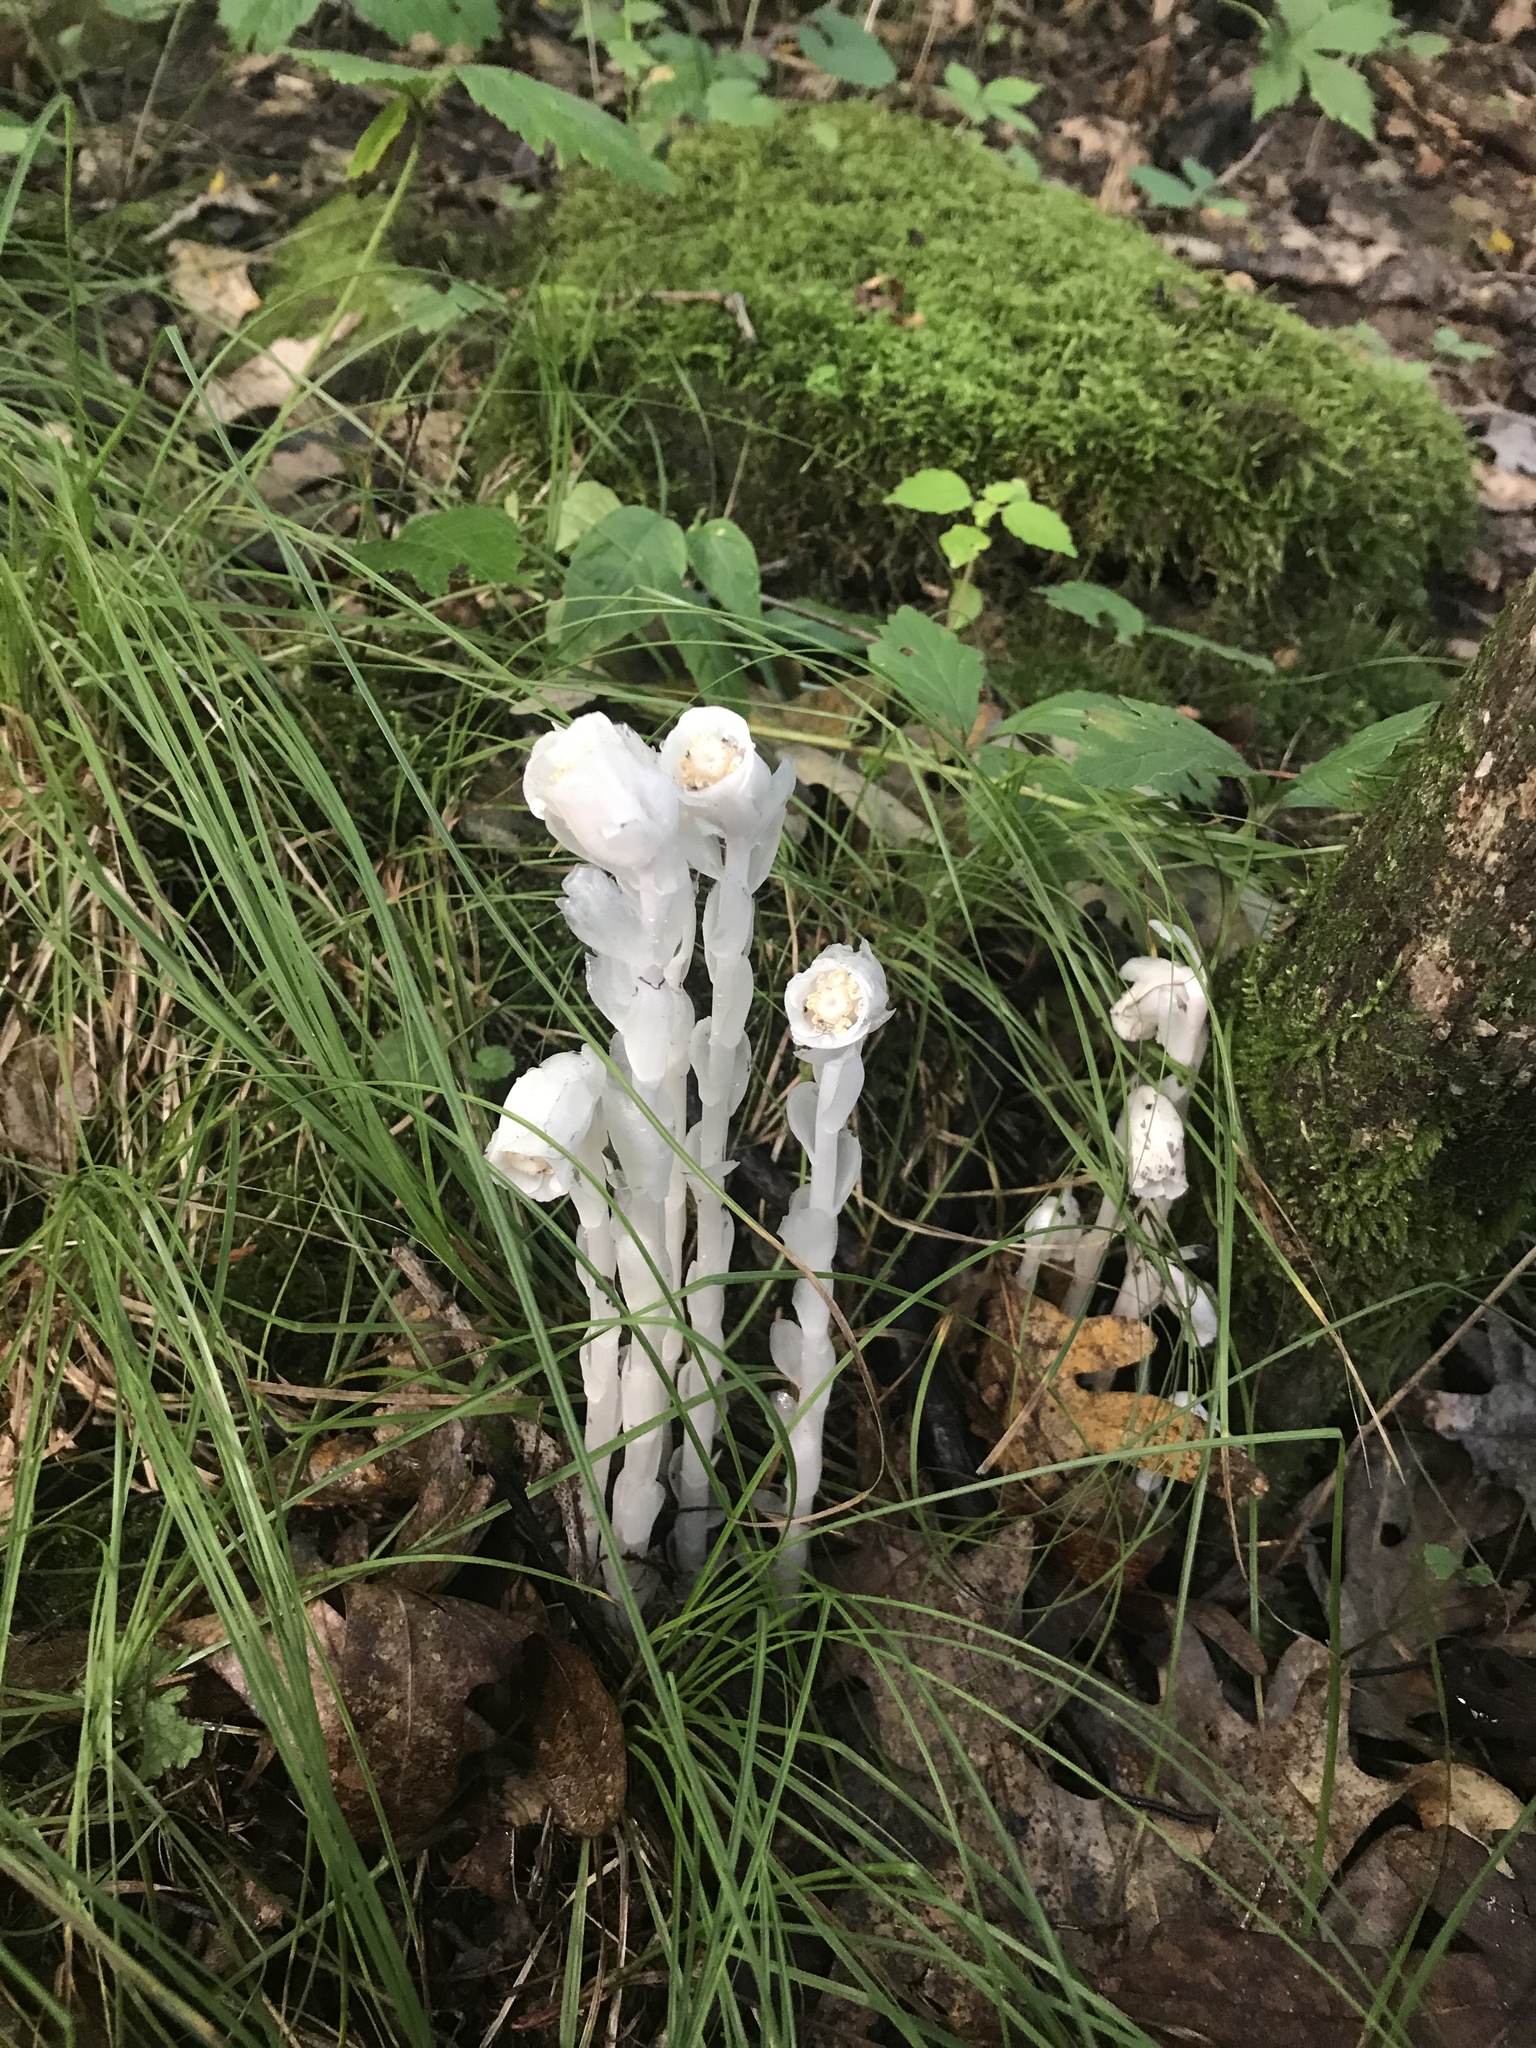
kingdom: Plantae
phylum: Tracheophyta
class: Magnoliopsida
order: Ericales
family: Ericaceae
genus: Monotropa
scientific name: Monotropa uniflora
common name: Convulsion root
